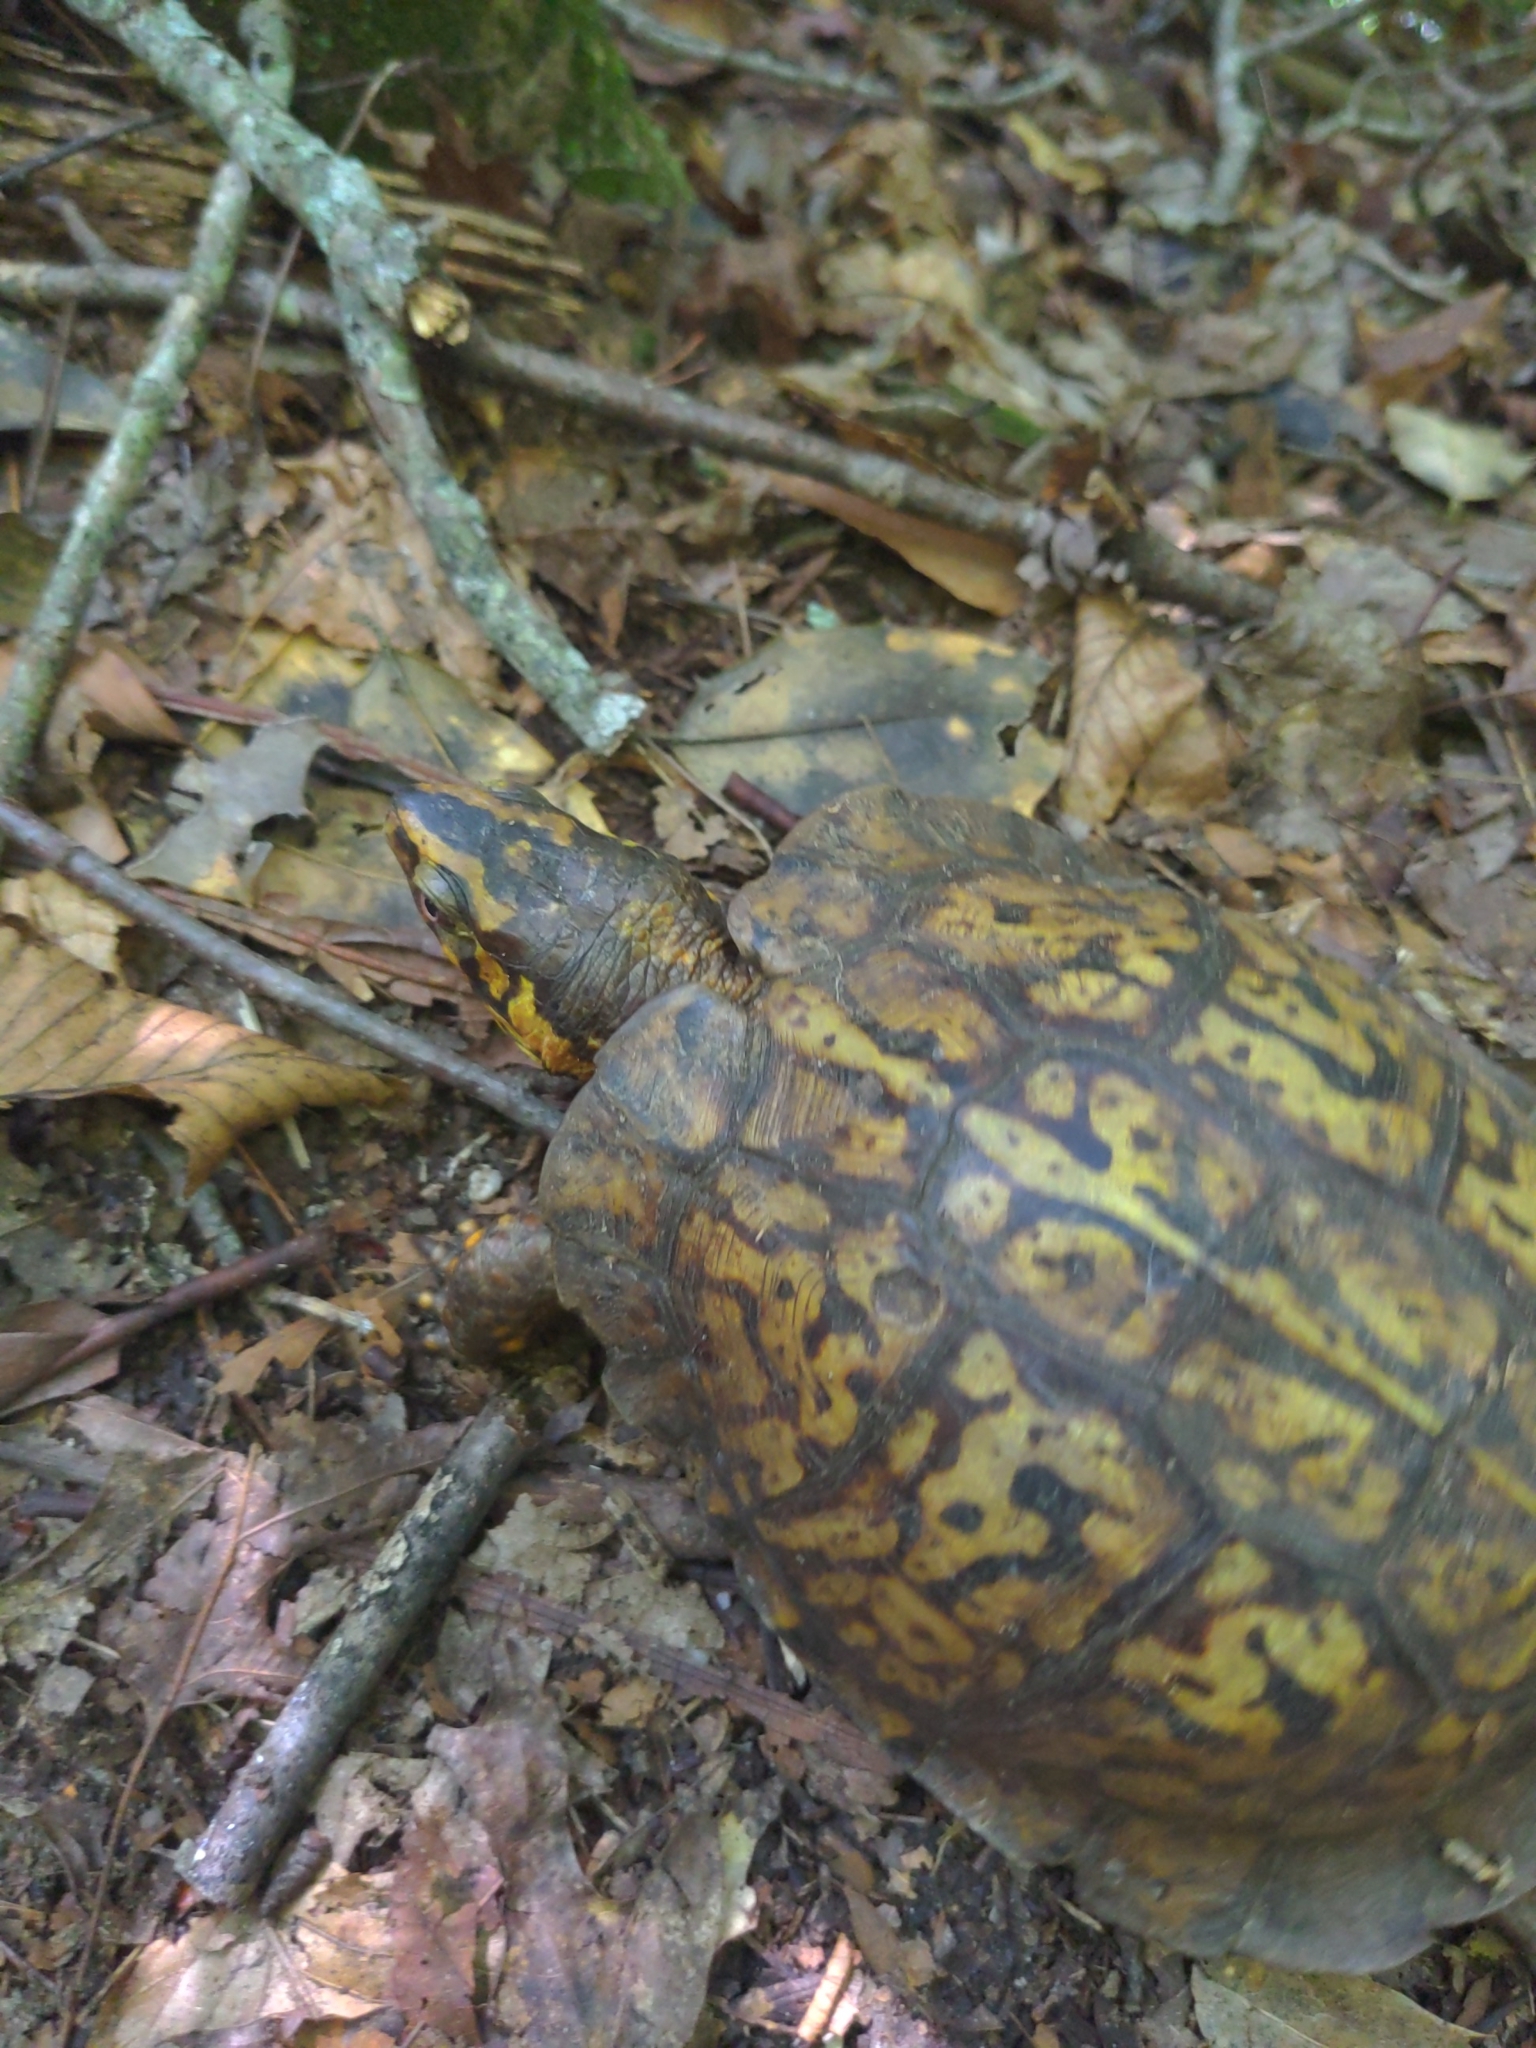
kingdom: Animalia
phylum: Chordata
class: Testudines
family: Emydidae
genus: Terrapene
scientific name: Terrapene carolina
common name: Common box turtle
